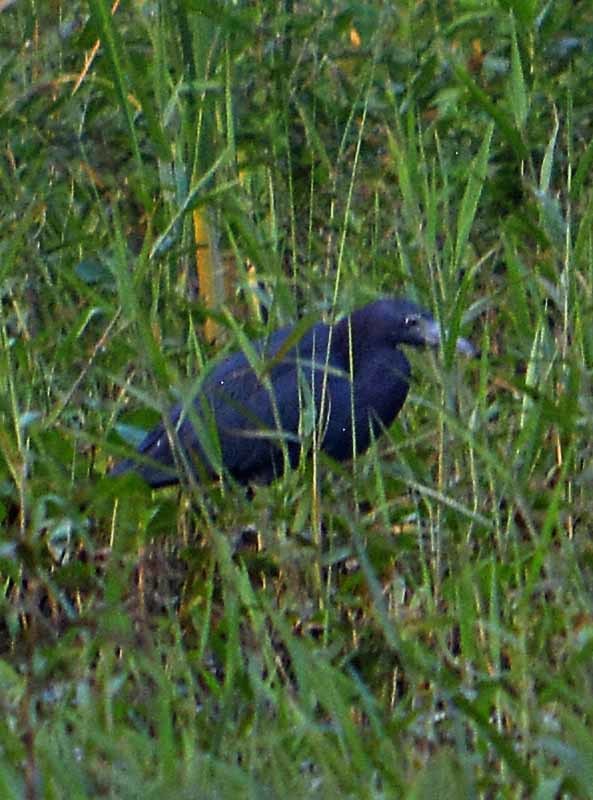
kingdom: Animalia
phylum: Chordata
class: Aves
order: Pelecaniformes
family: Ardeidae
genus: Egretta
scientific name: Egretta caerulea
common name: Little blue heron
